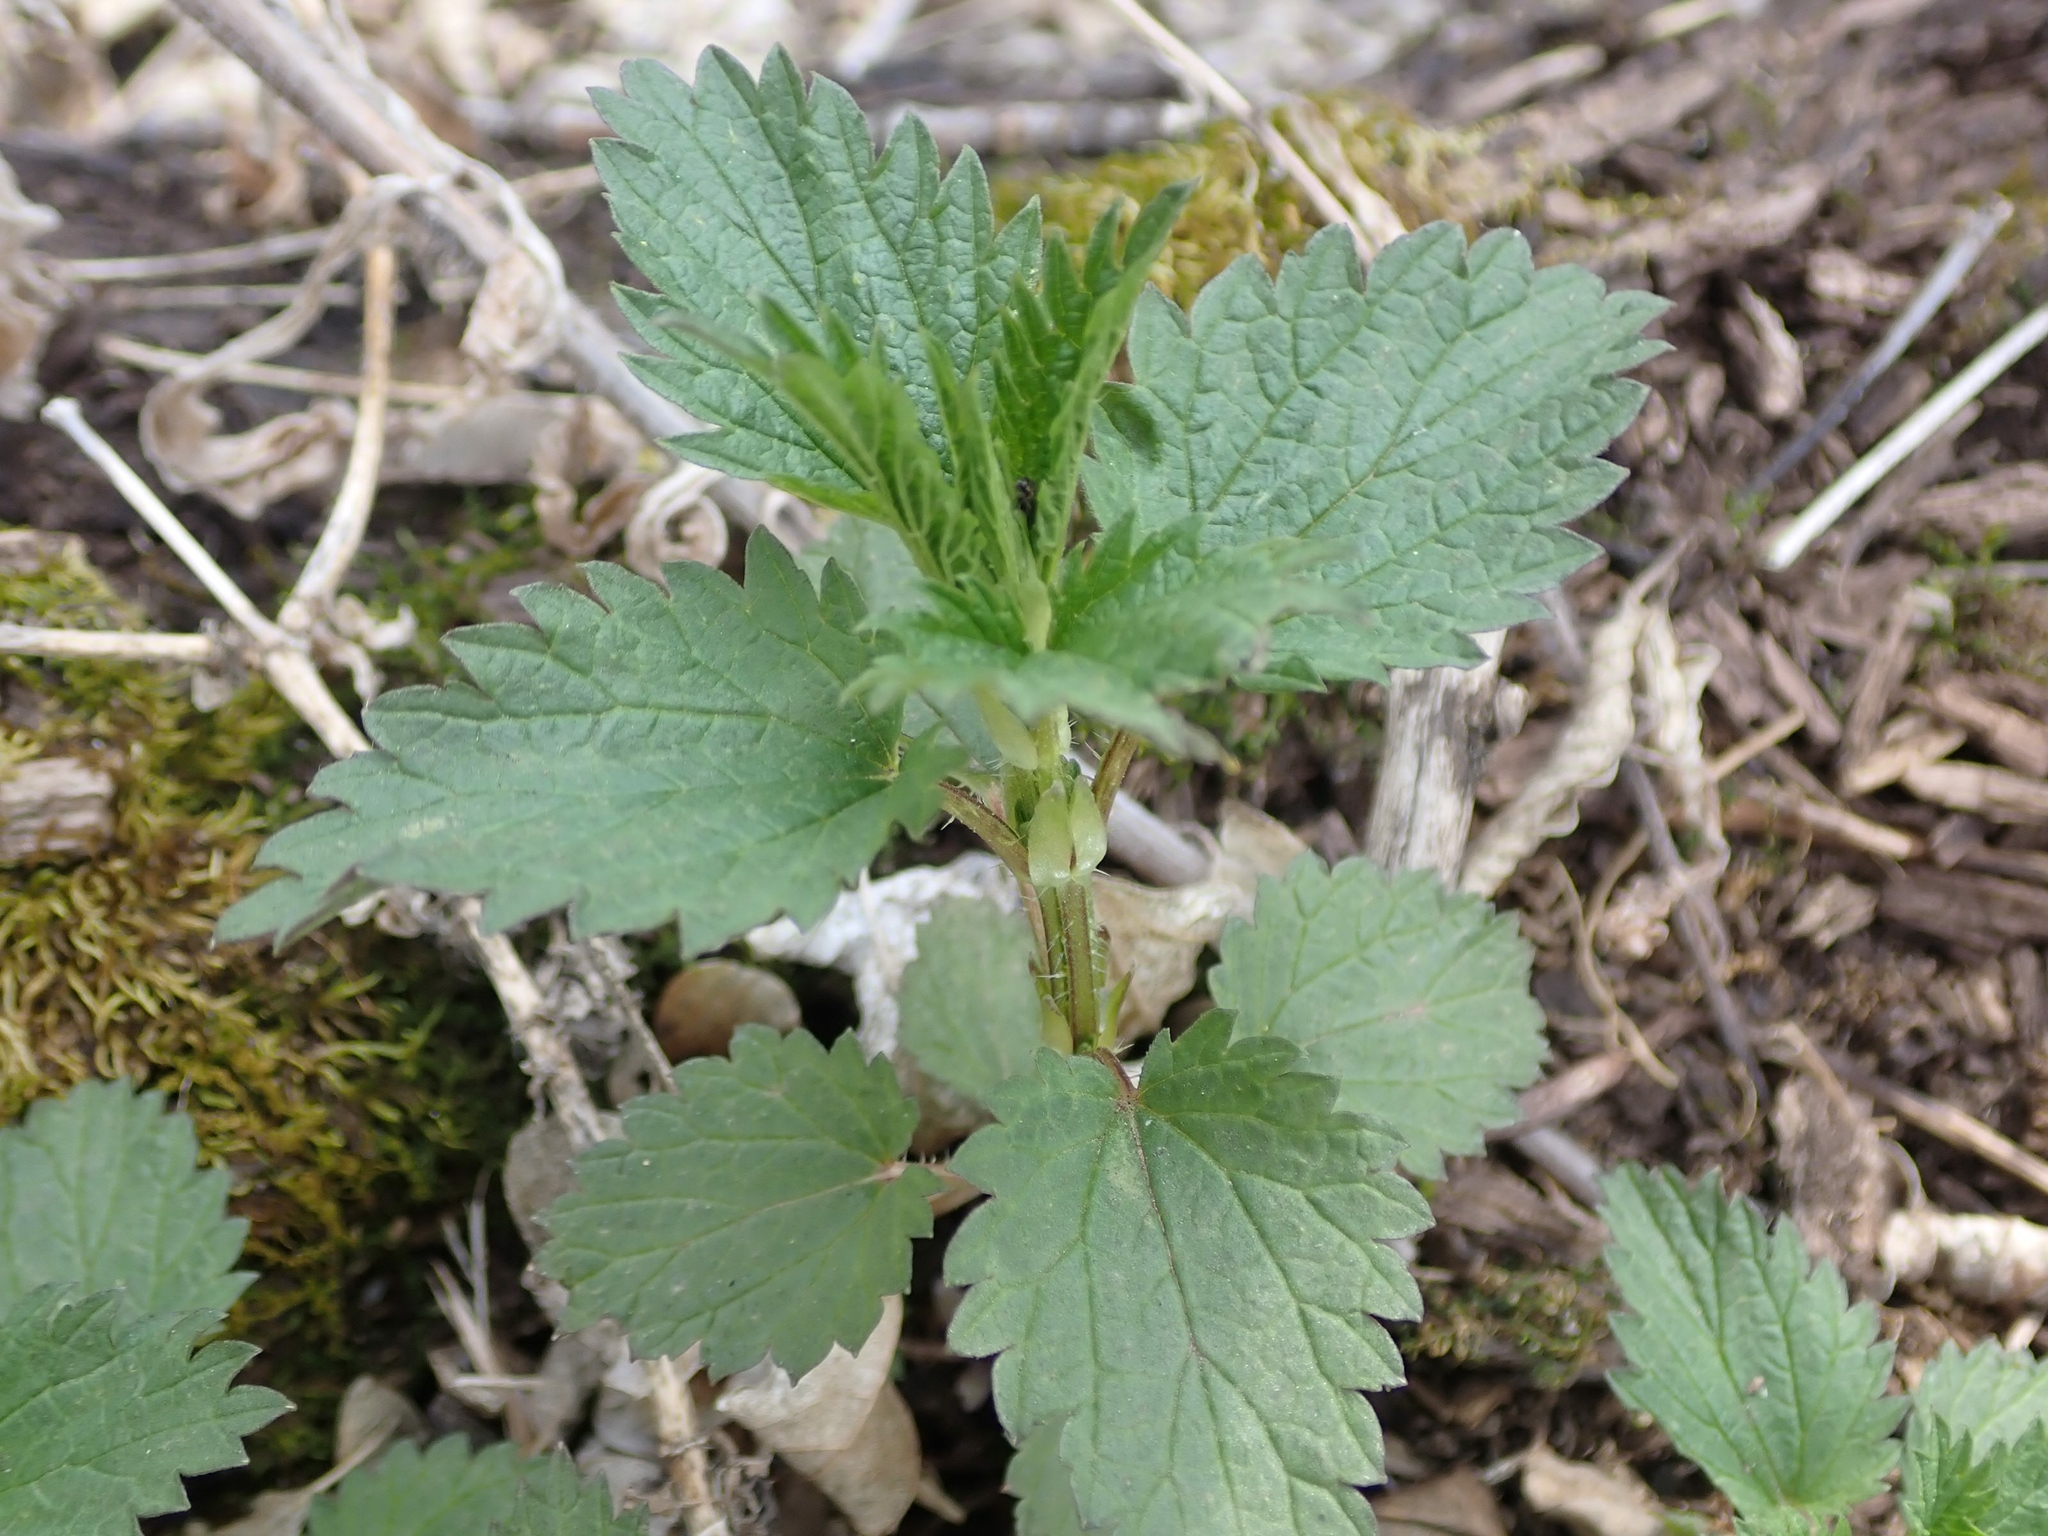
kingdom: Plantae
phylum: Tracheophyta
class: Magnoliopsida
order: Rosales
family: Urticaceae
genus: Urtica
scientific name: Urtica gracilis
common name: Slender stinging nettle
